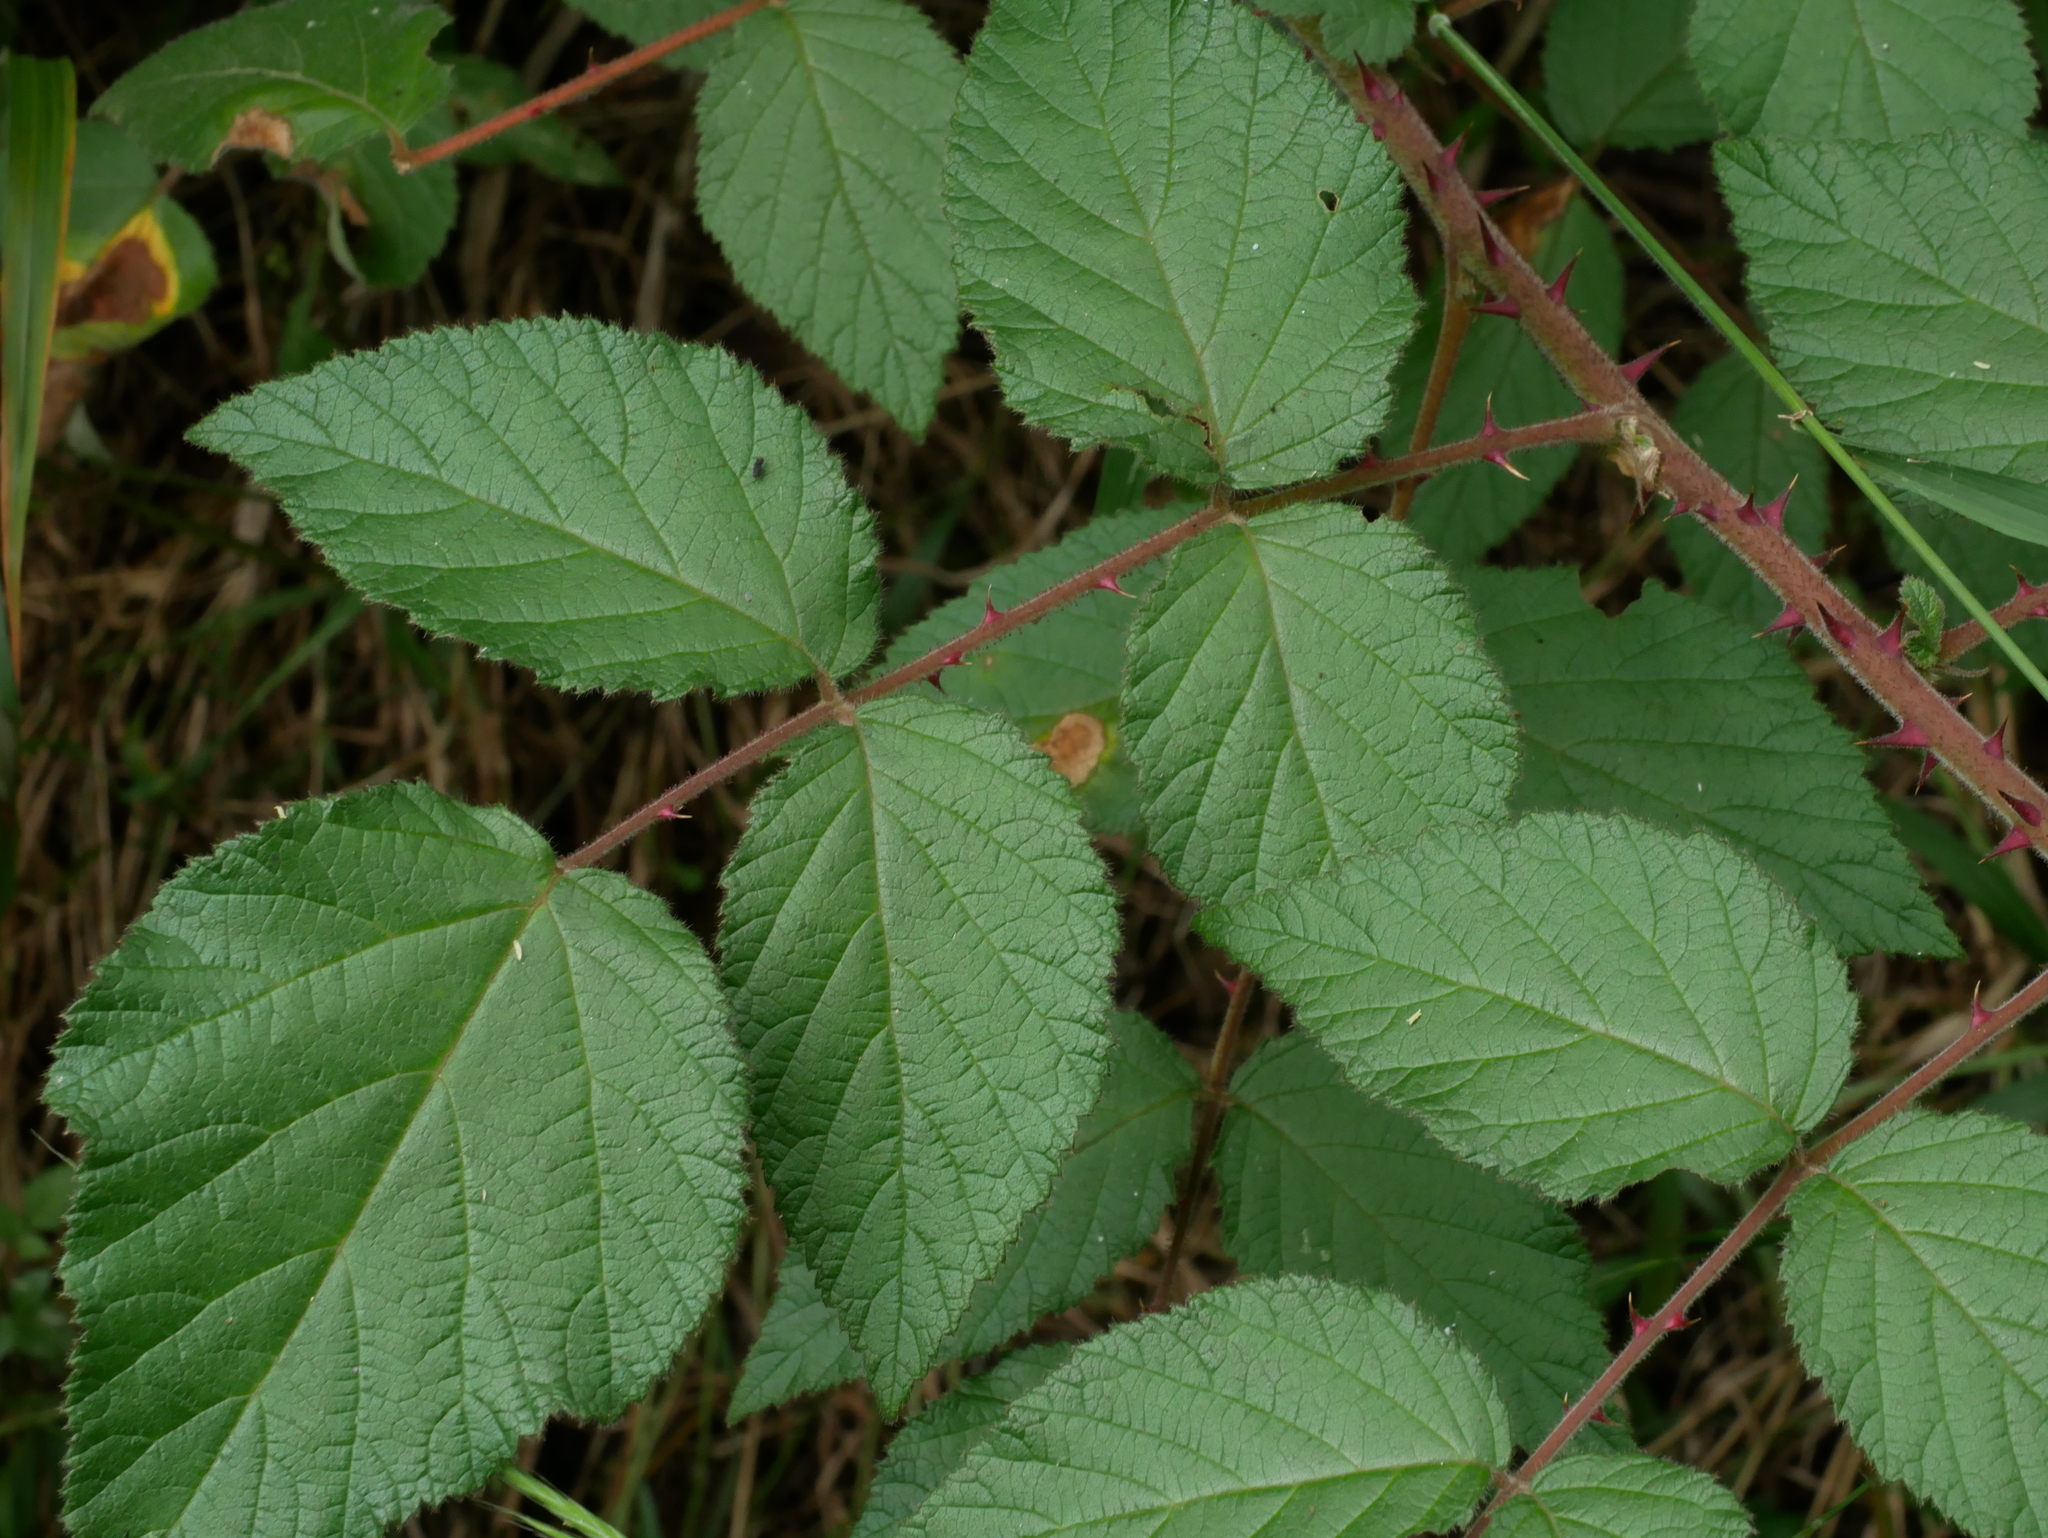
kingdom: Plantae
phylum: Tracheophyta
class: Magnoliopsida
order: Rosales
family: Rosaceae
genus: Rubus
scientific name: Rubus parviaraliifolius
